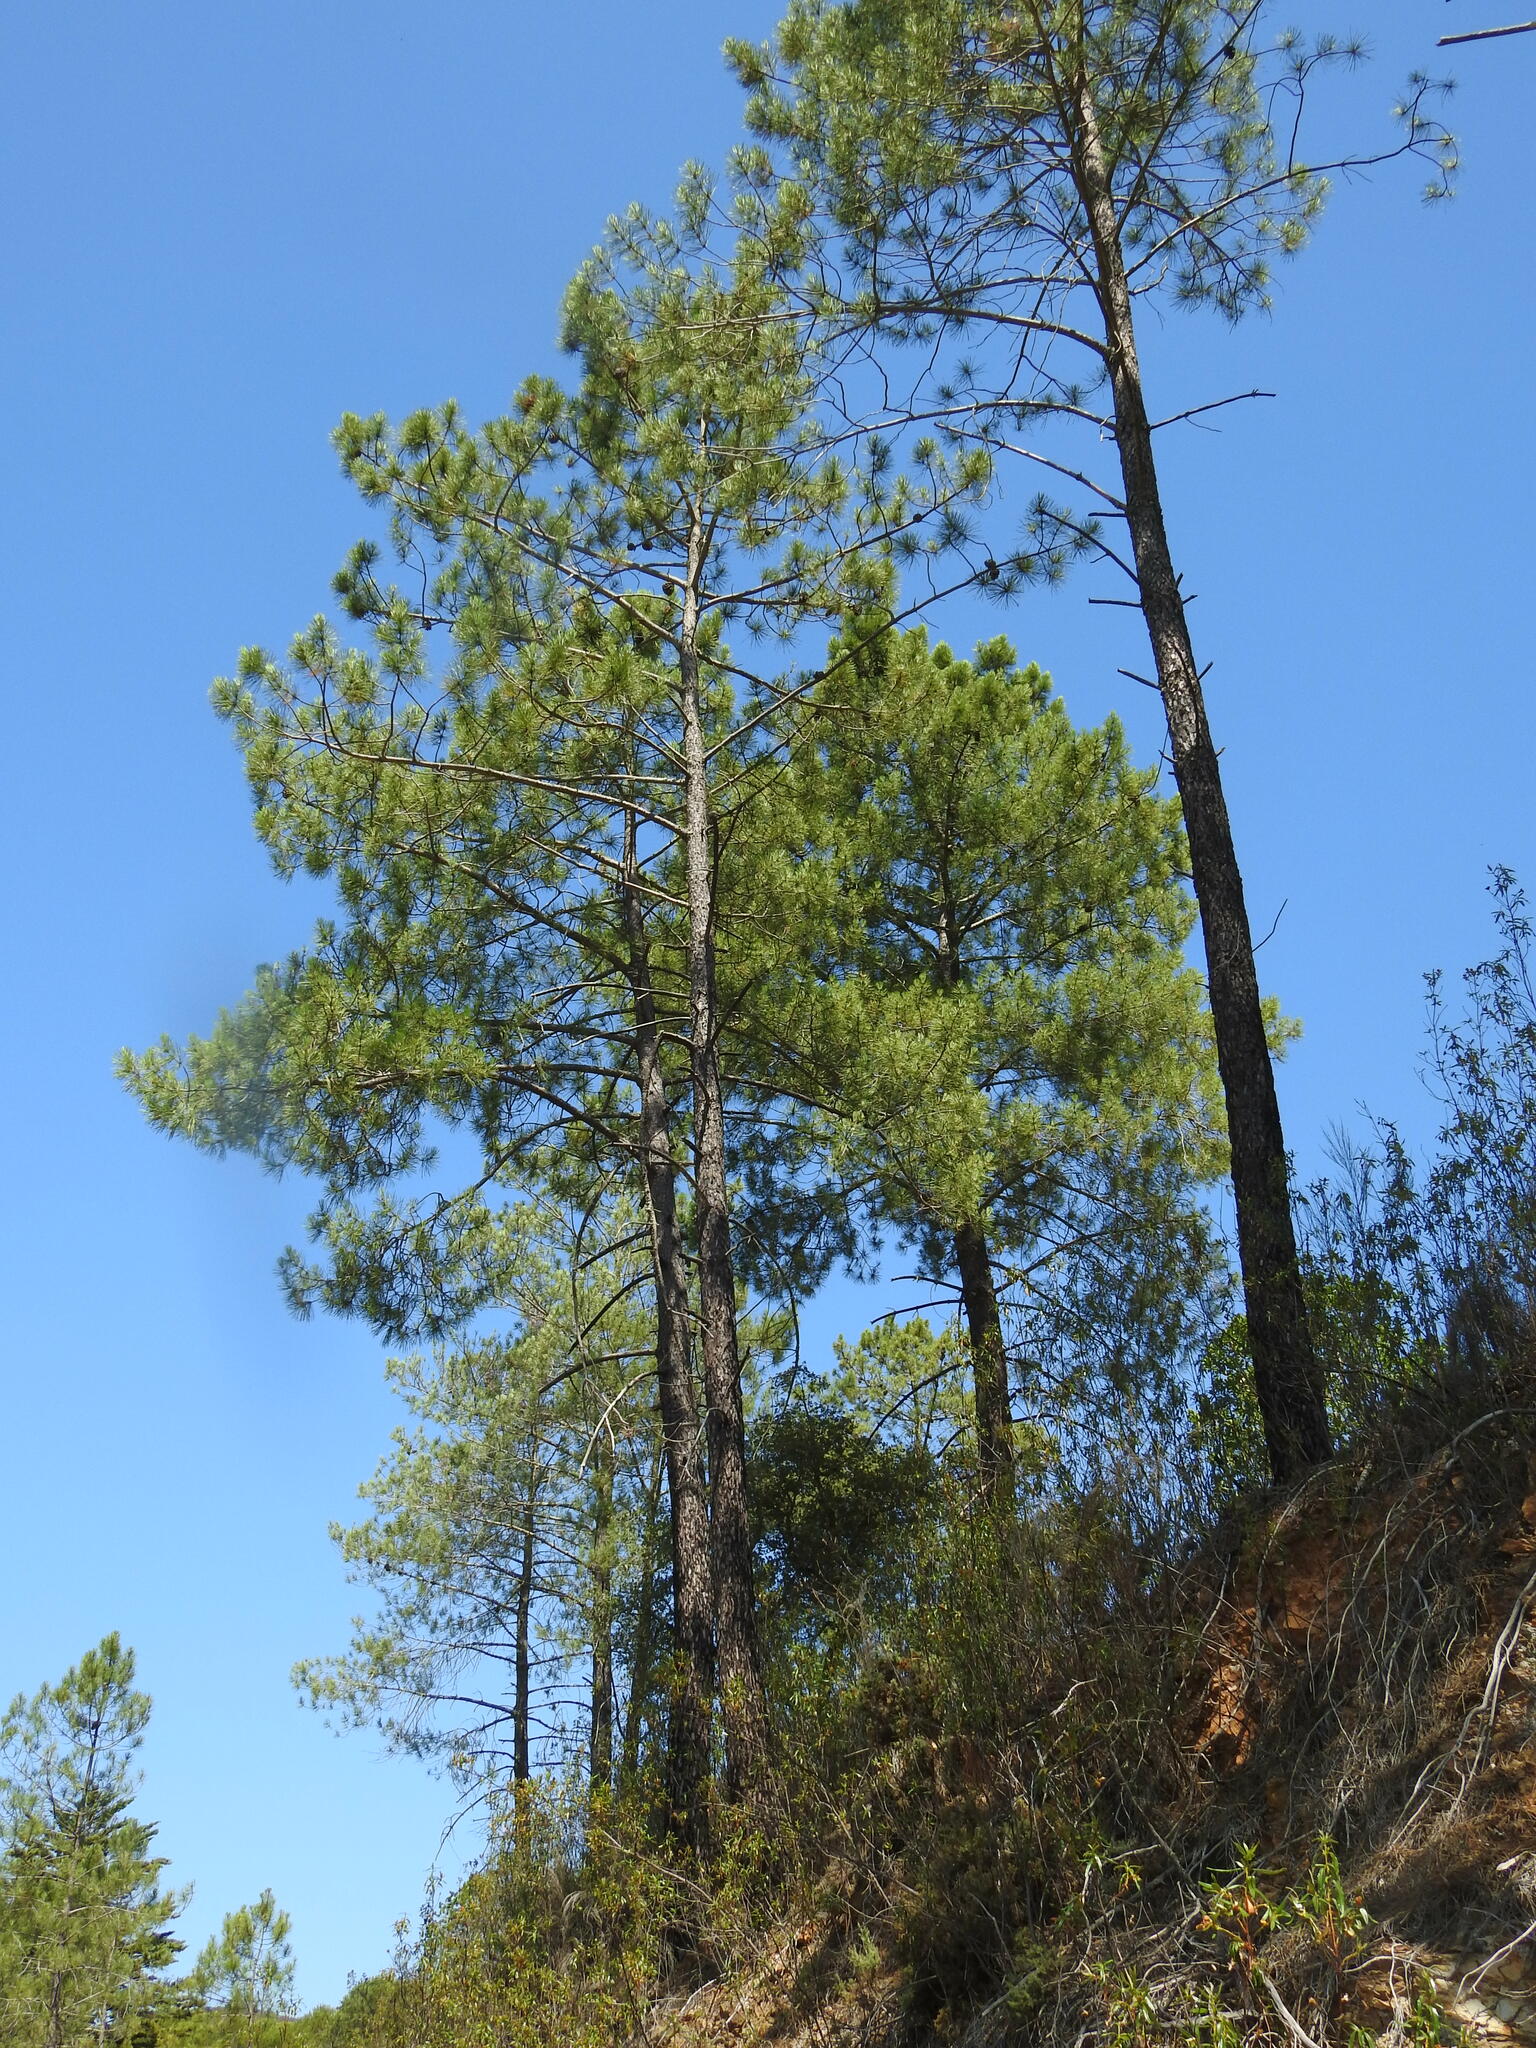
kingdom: Plantae
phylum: Tracheophyta
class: Pinopsida
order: Pinales
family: Pinaceae
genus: Pinus
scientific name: Pinus pinaster
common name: Maritime pine
